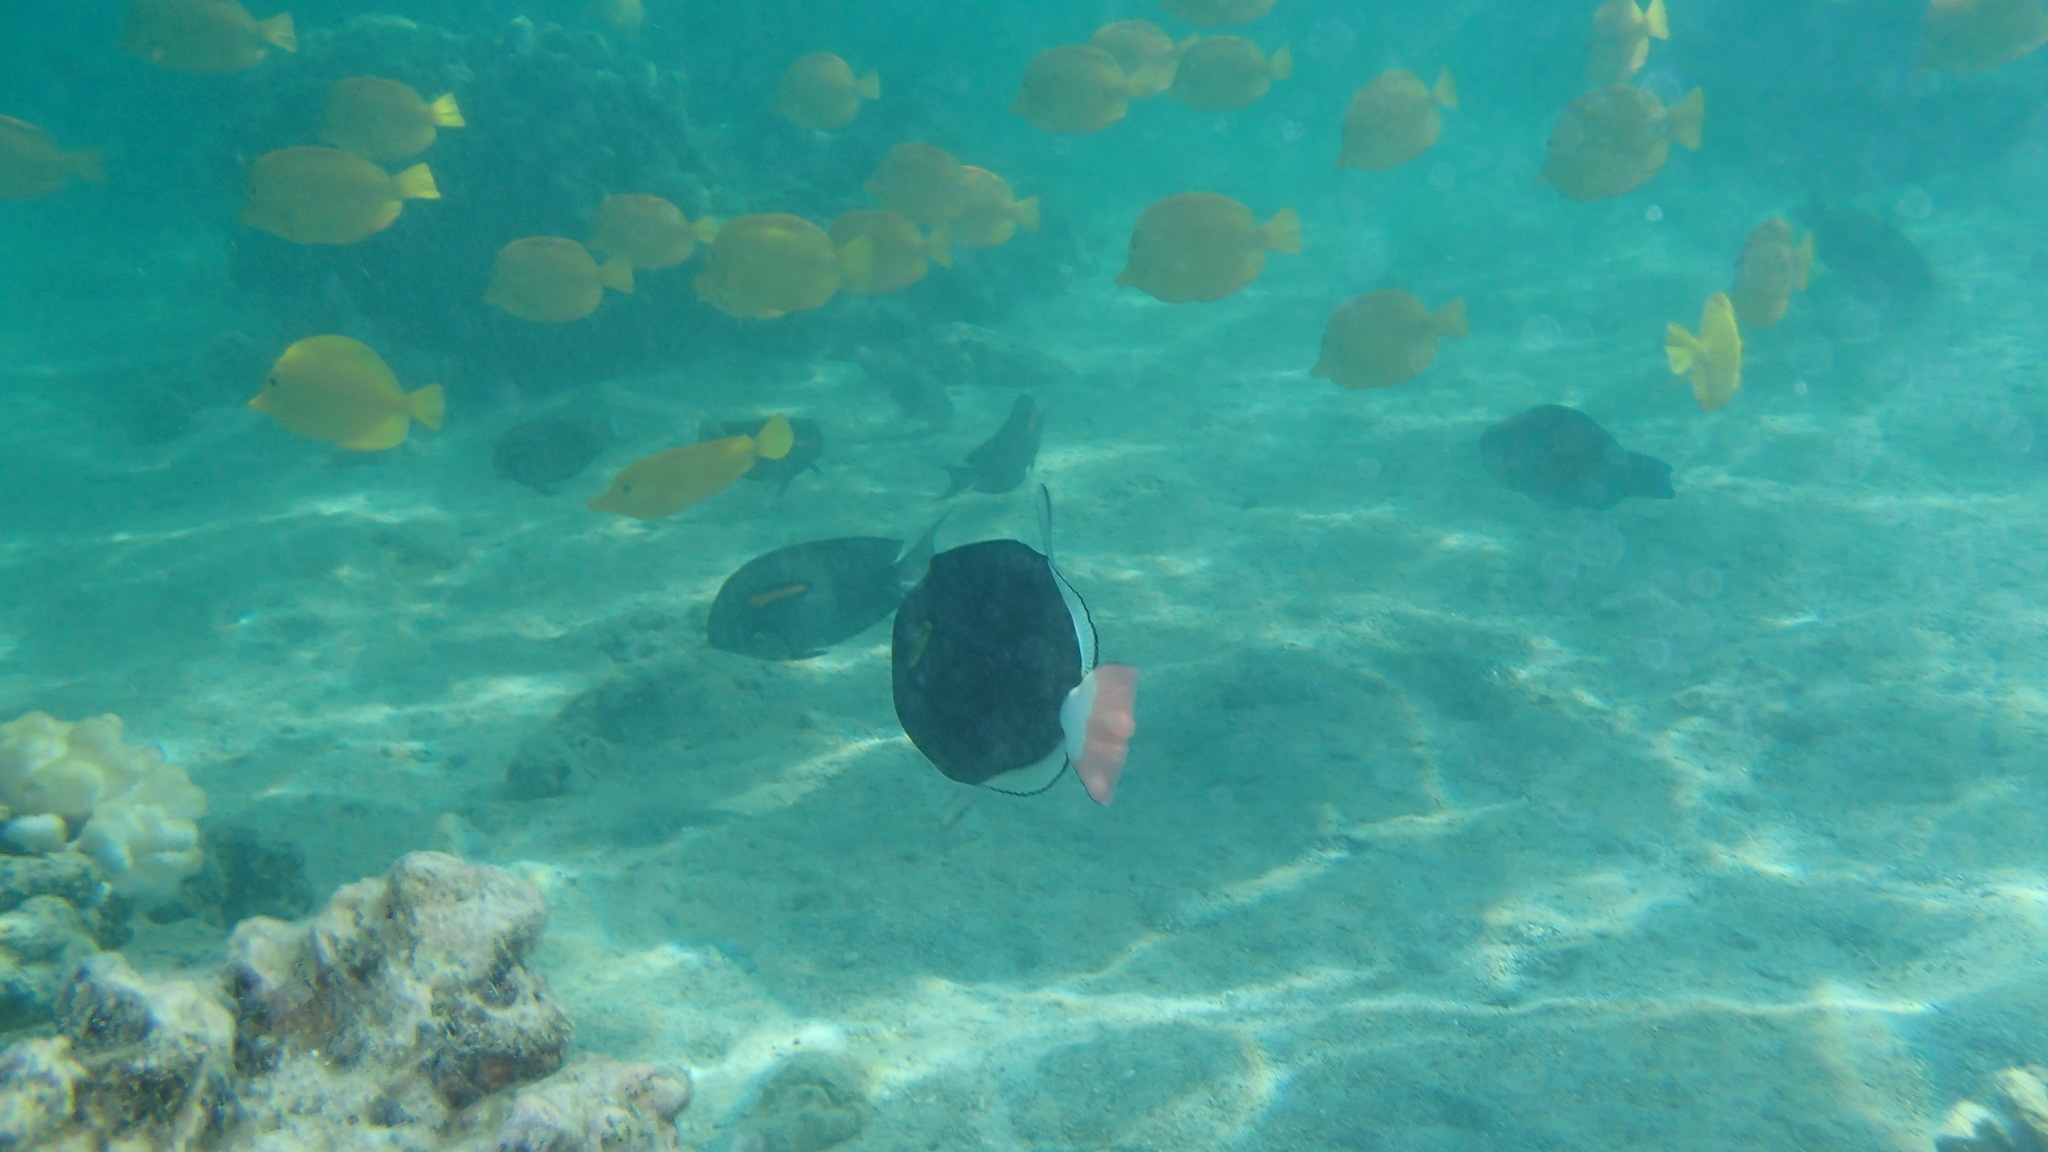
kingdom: Animalia
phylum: Chordata
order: Tetraodontiformes
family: Balistidae
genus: Melichthys
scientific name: Melichthys vidua
